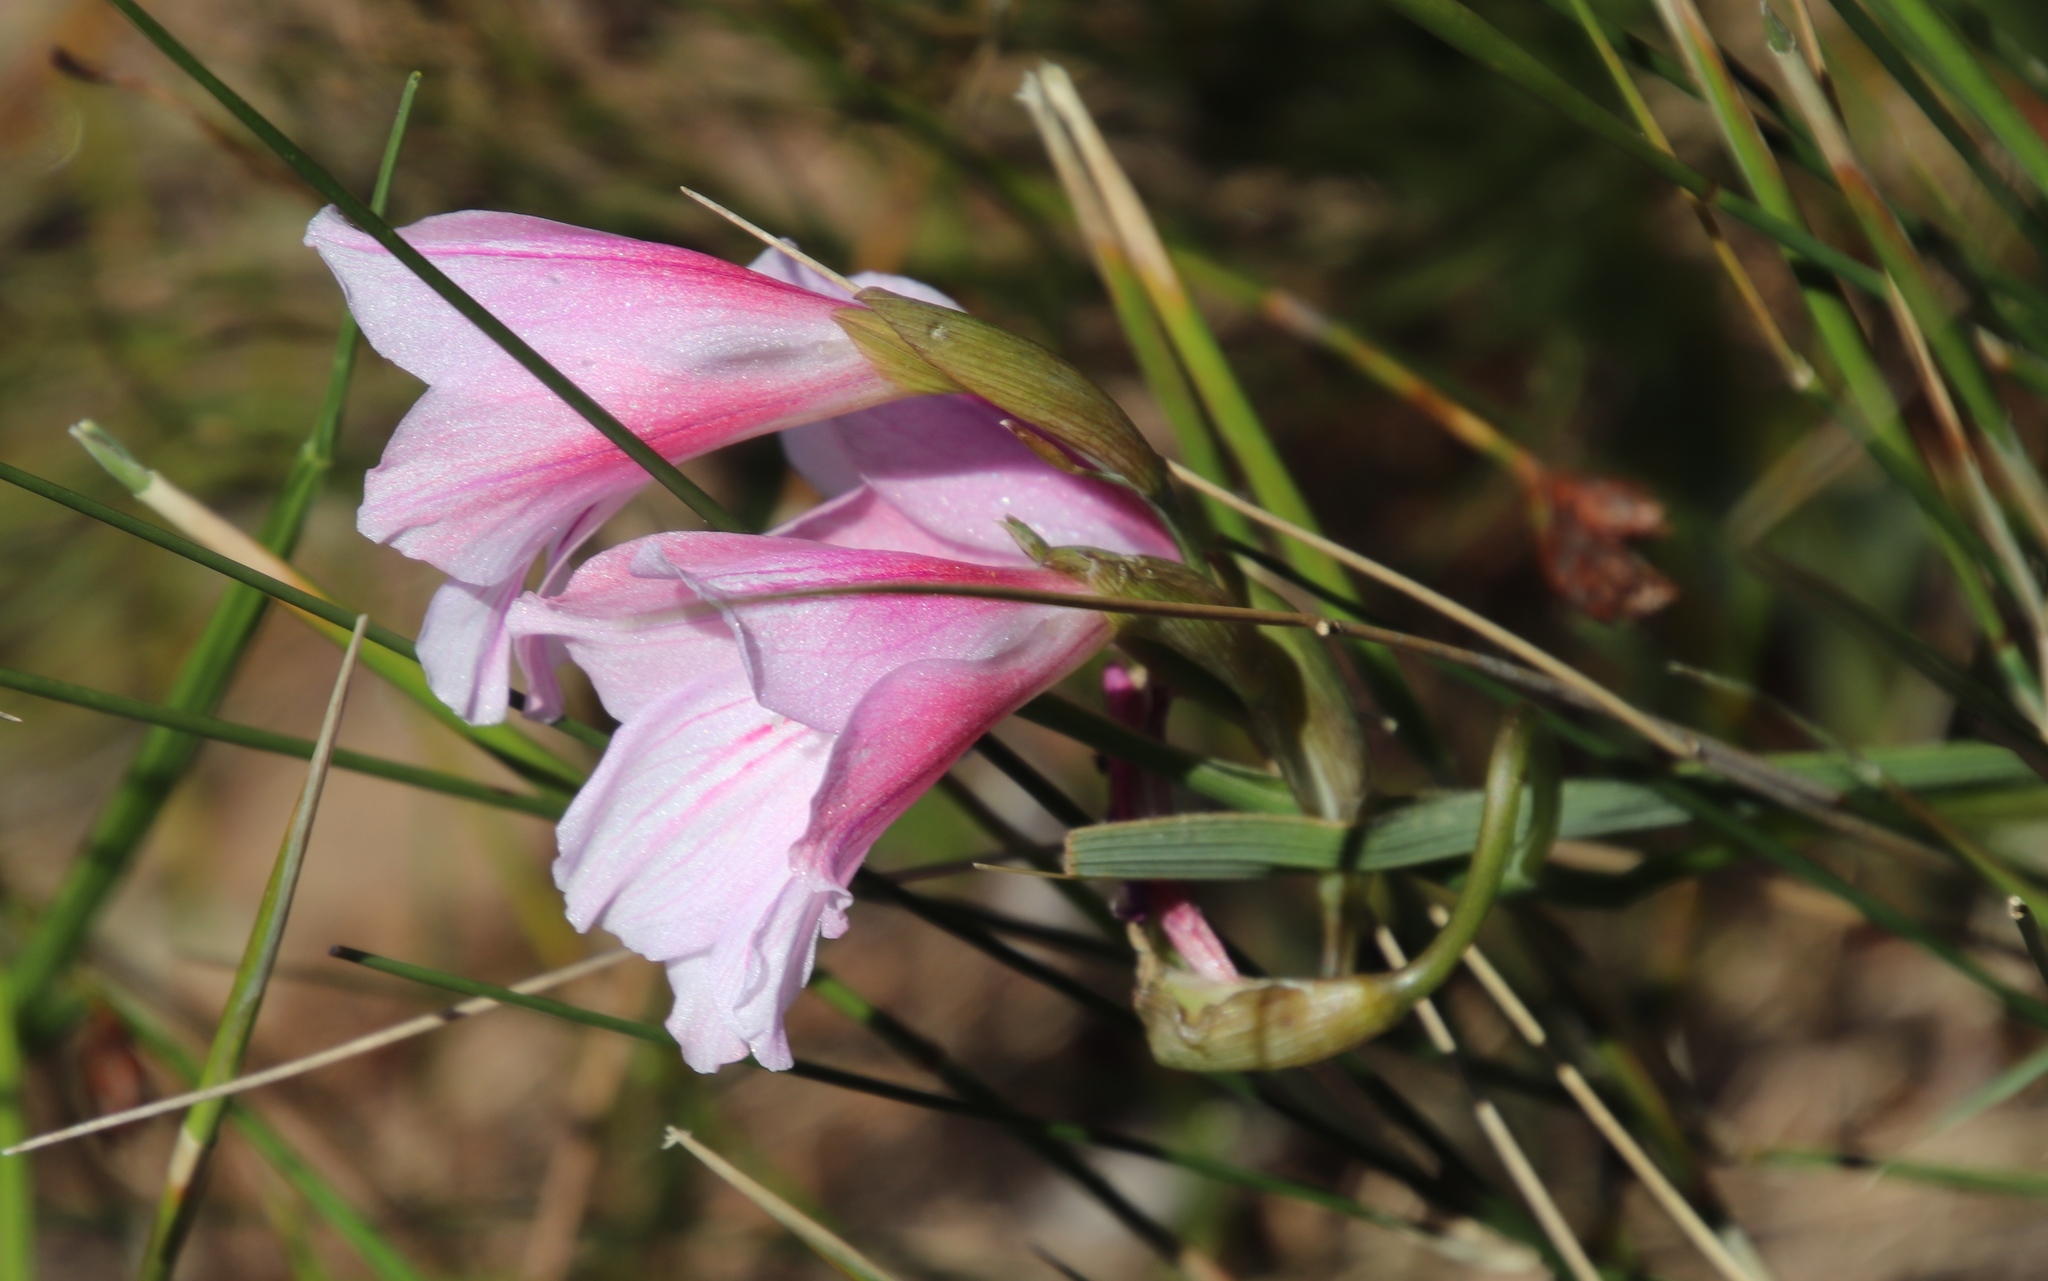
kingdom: Plantae
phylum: Tracheophyta
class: Liliopsida
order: Asparagales
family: Iridaceae
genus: Gladiolus
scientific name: Gladiolus hirsutus
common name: Small pink afrikaner
